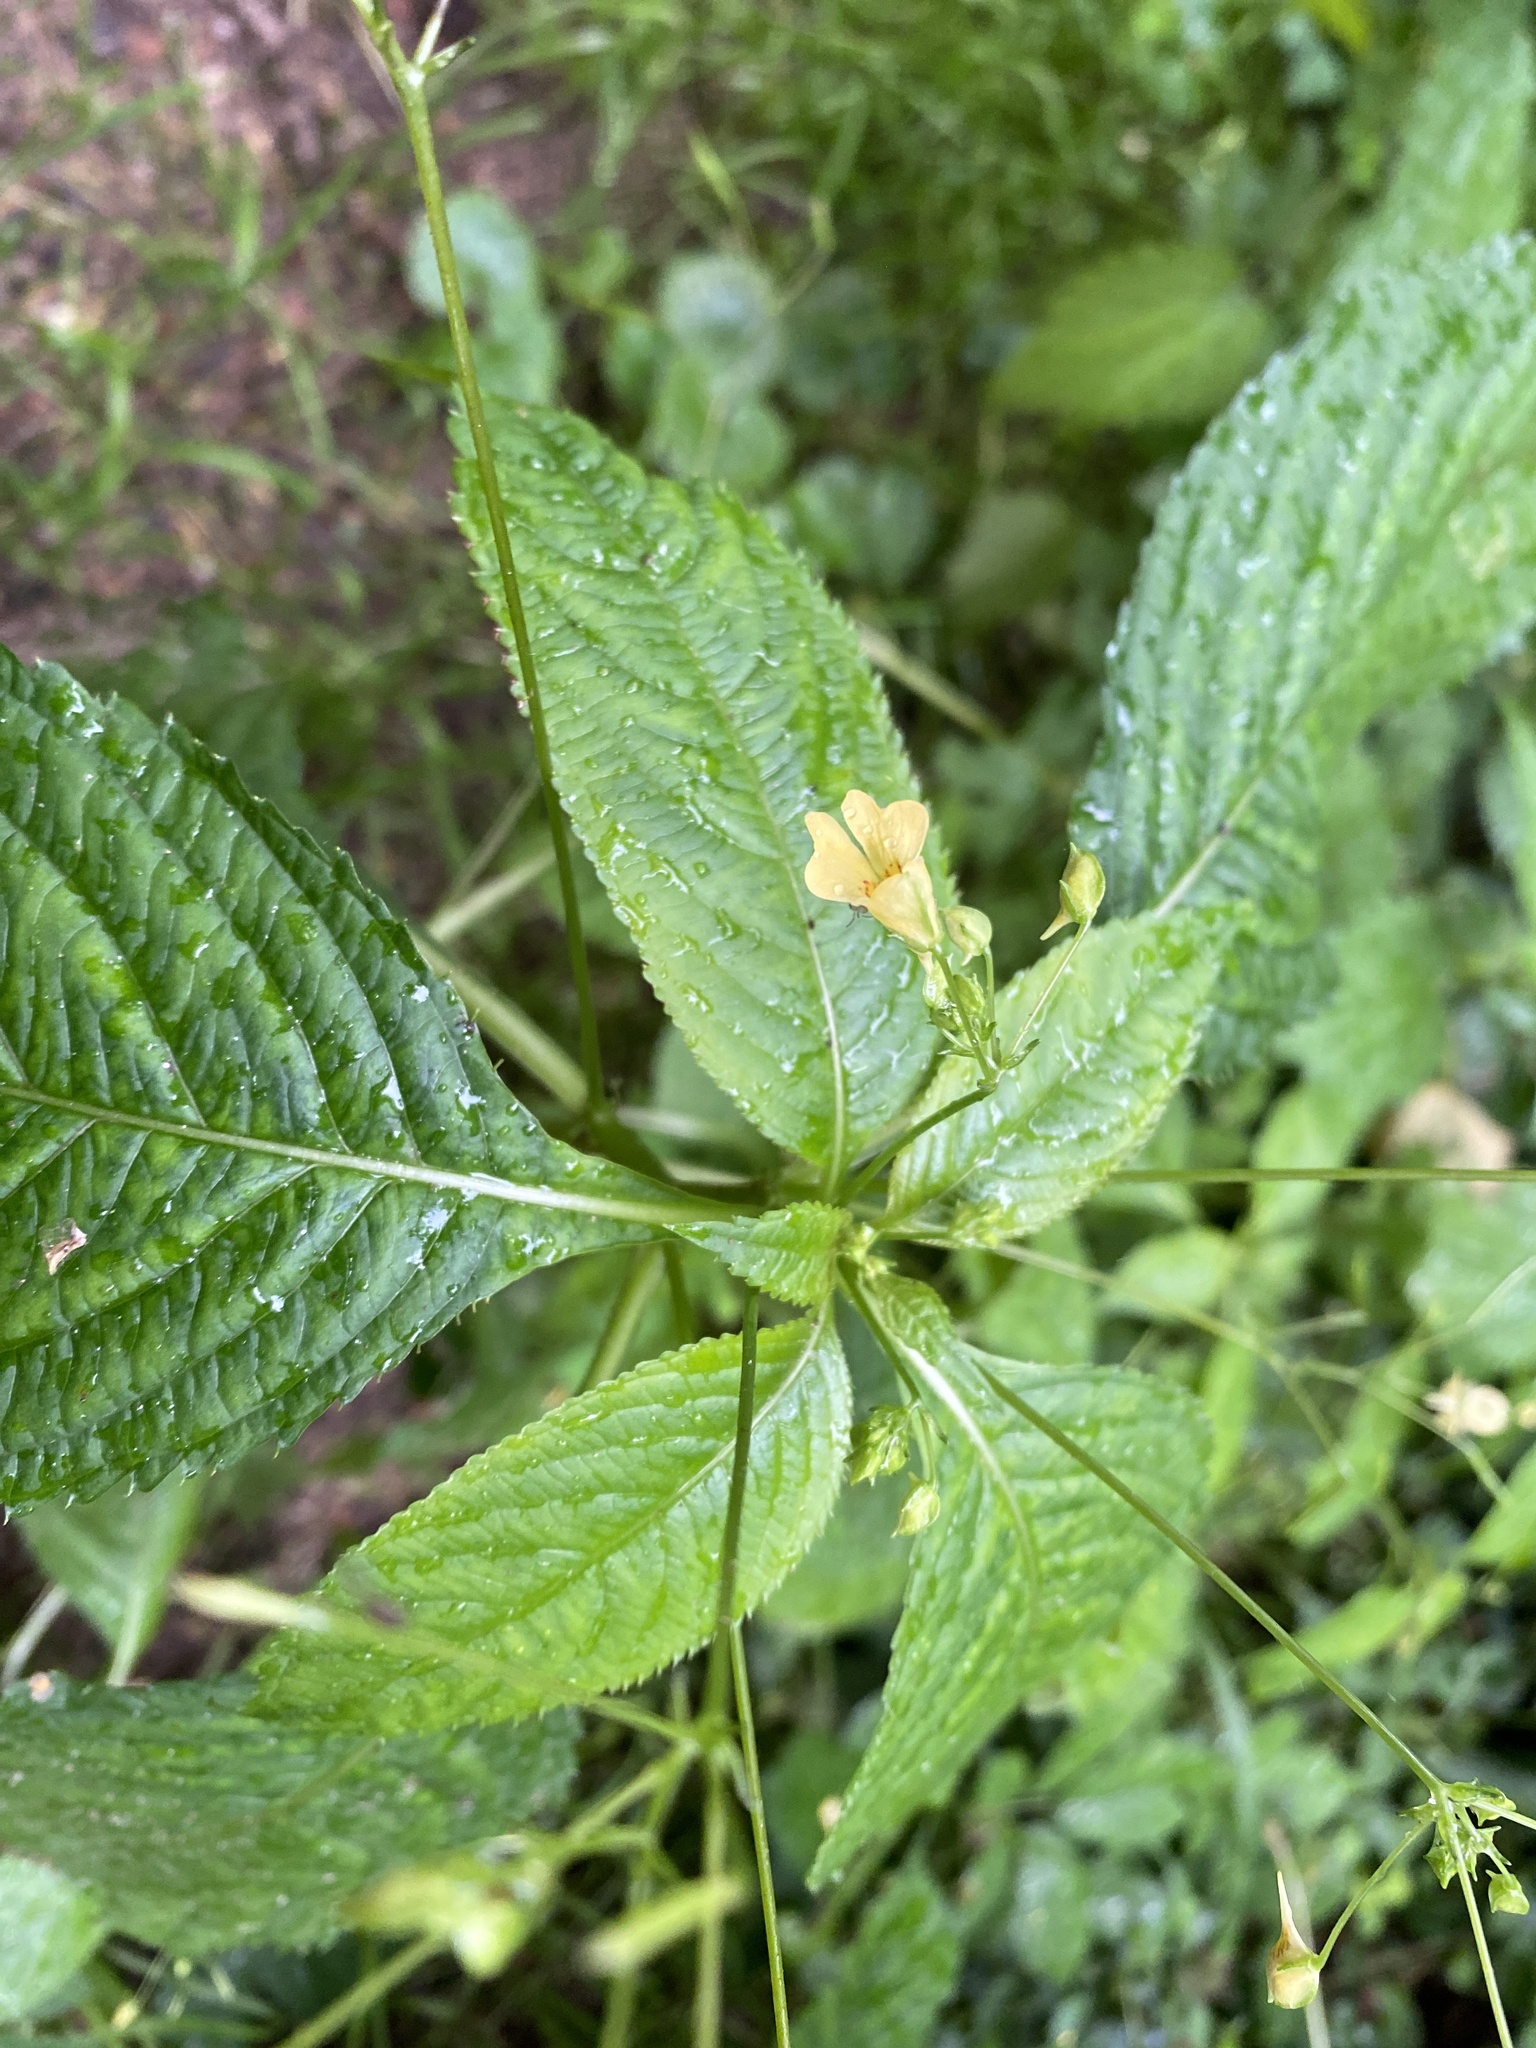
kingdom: Plantae
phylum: Tracheophyta
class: Magnoliopsida
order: Ericales
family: Balsaminaceae
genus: Impatiens
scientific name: Impatiens parviflora
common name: Small balsam
